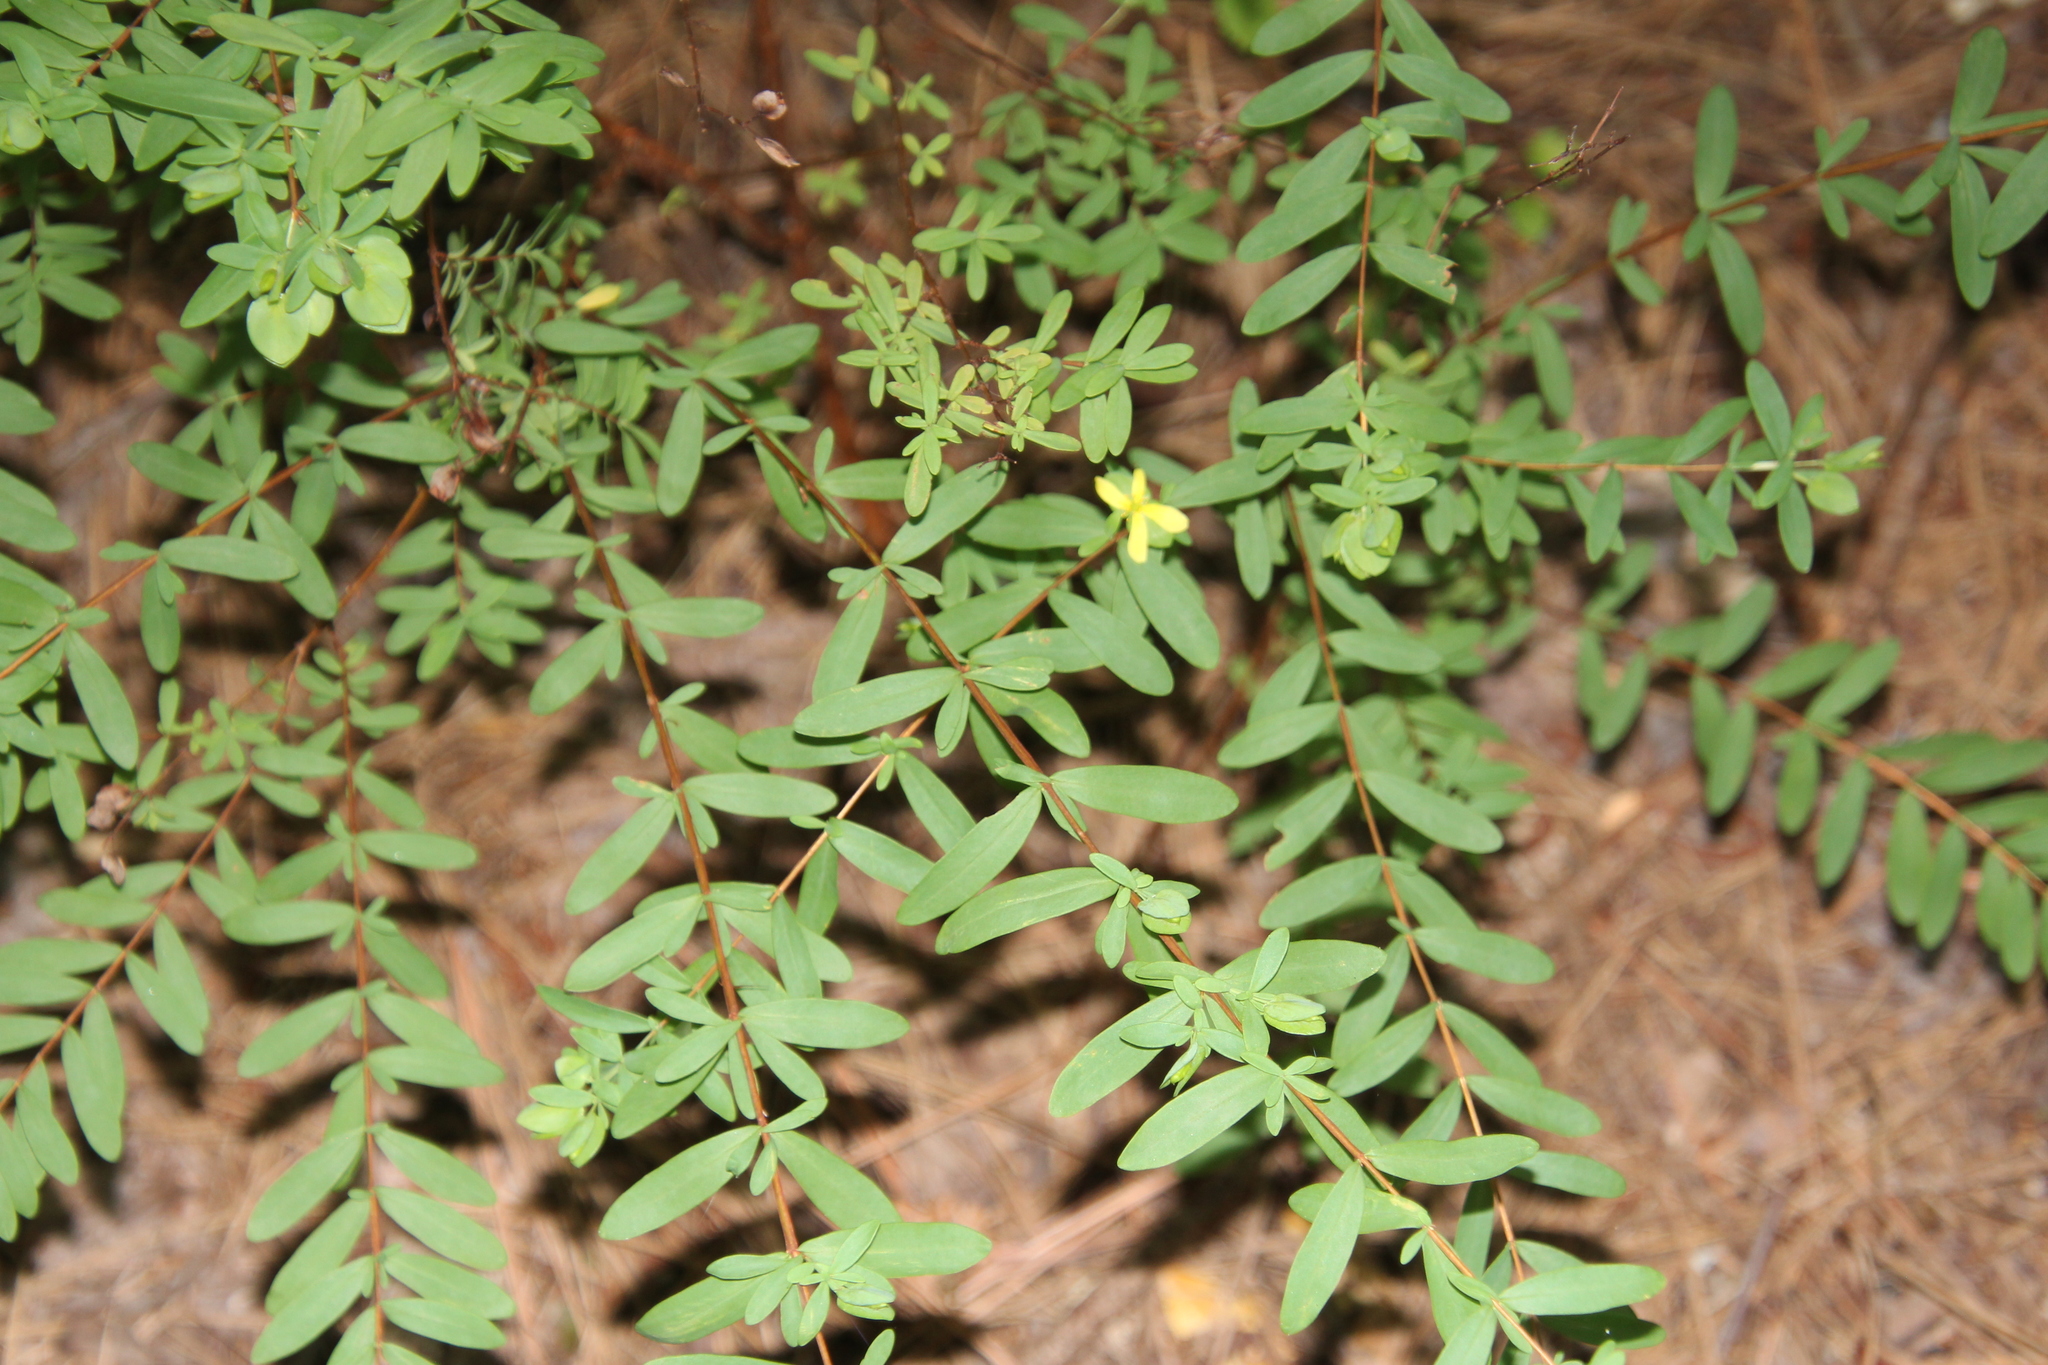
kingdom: Plantae
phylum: Tracheophyta
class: Magnoliopsida
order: Malpighiales
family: Hypericaceae
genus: Hypericum
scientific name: Hypericum hypericoides
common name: St. andrew's cross
